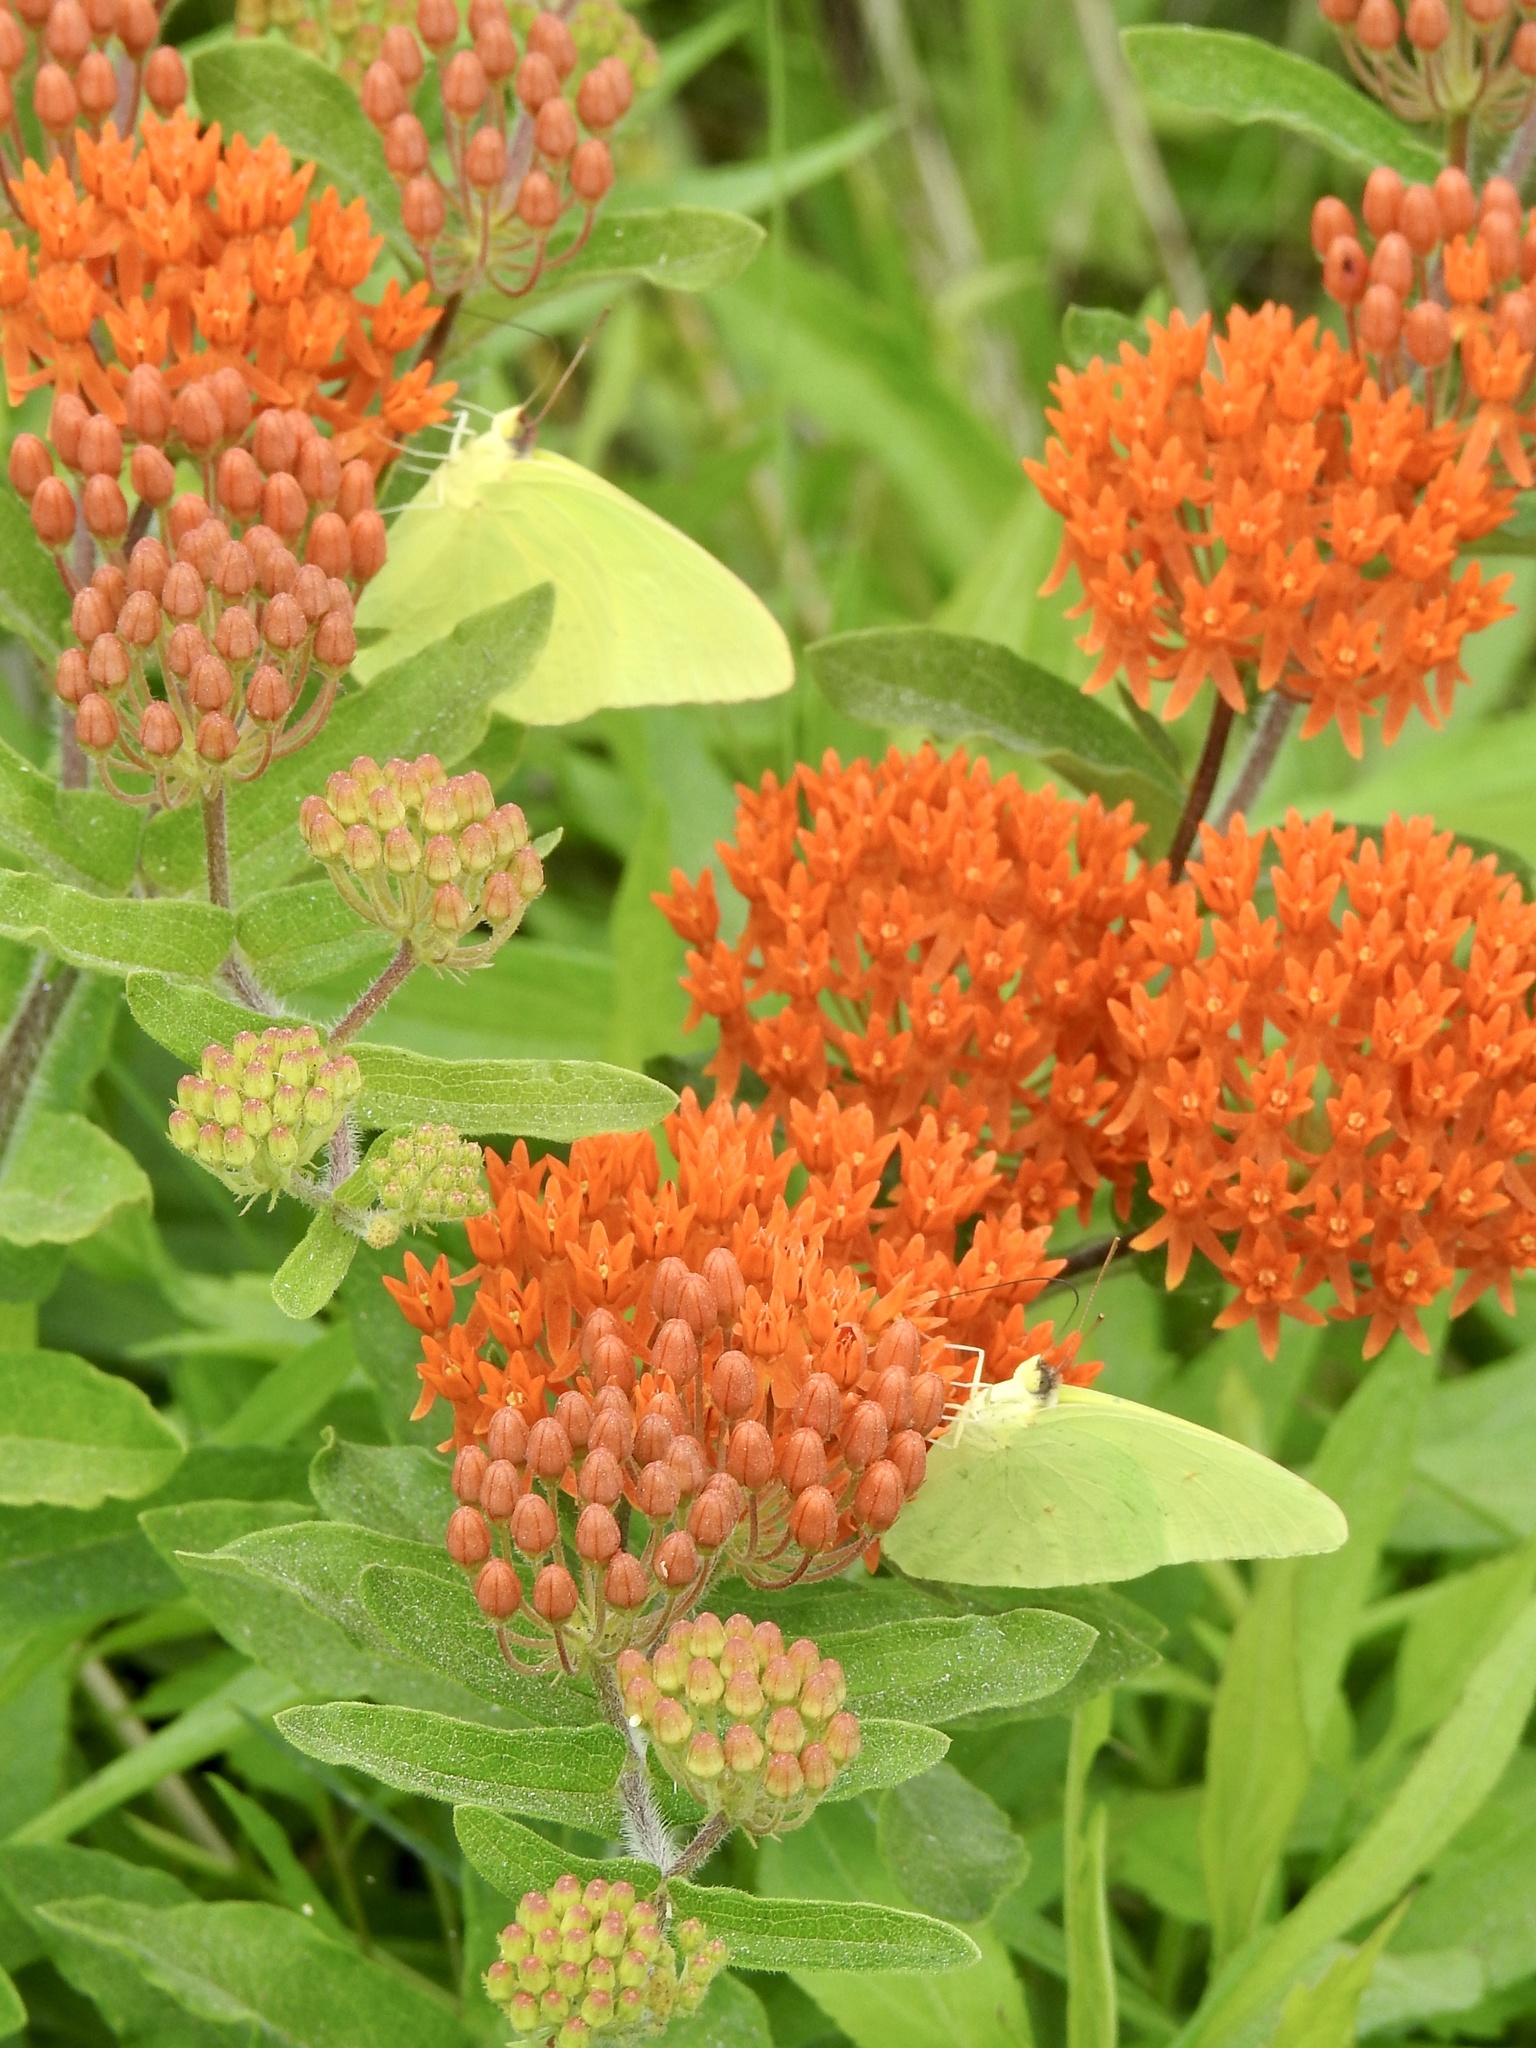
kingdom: Animalia
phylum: Arthropoda
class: Insecta
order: Lepidoptera
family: Pieridae
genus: Phoebis
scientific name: Phoebis sennae
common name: Cloudless sulphur
